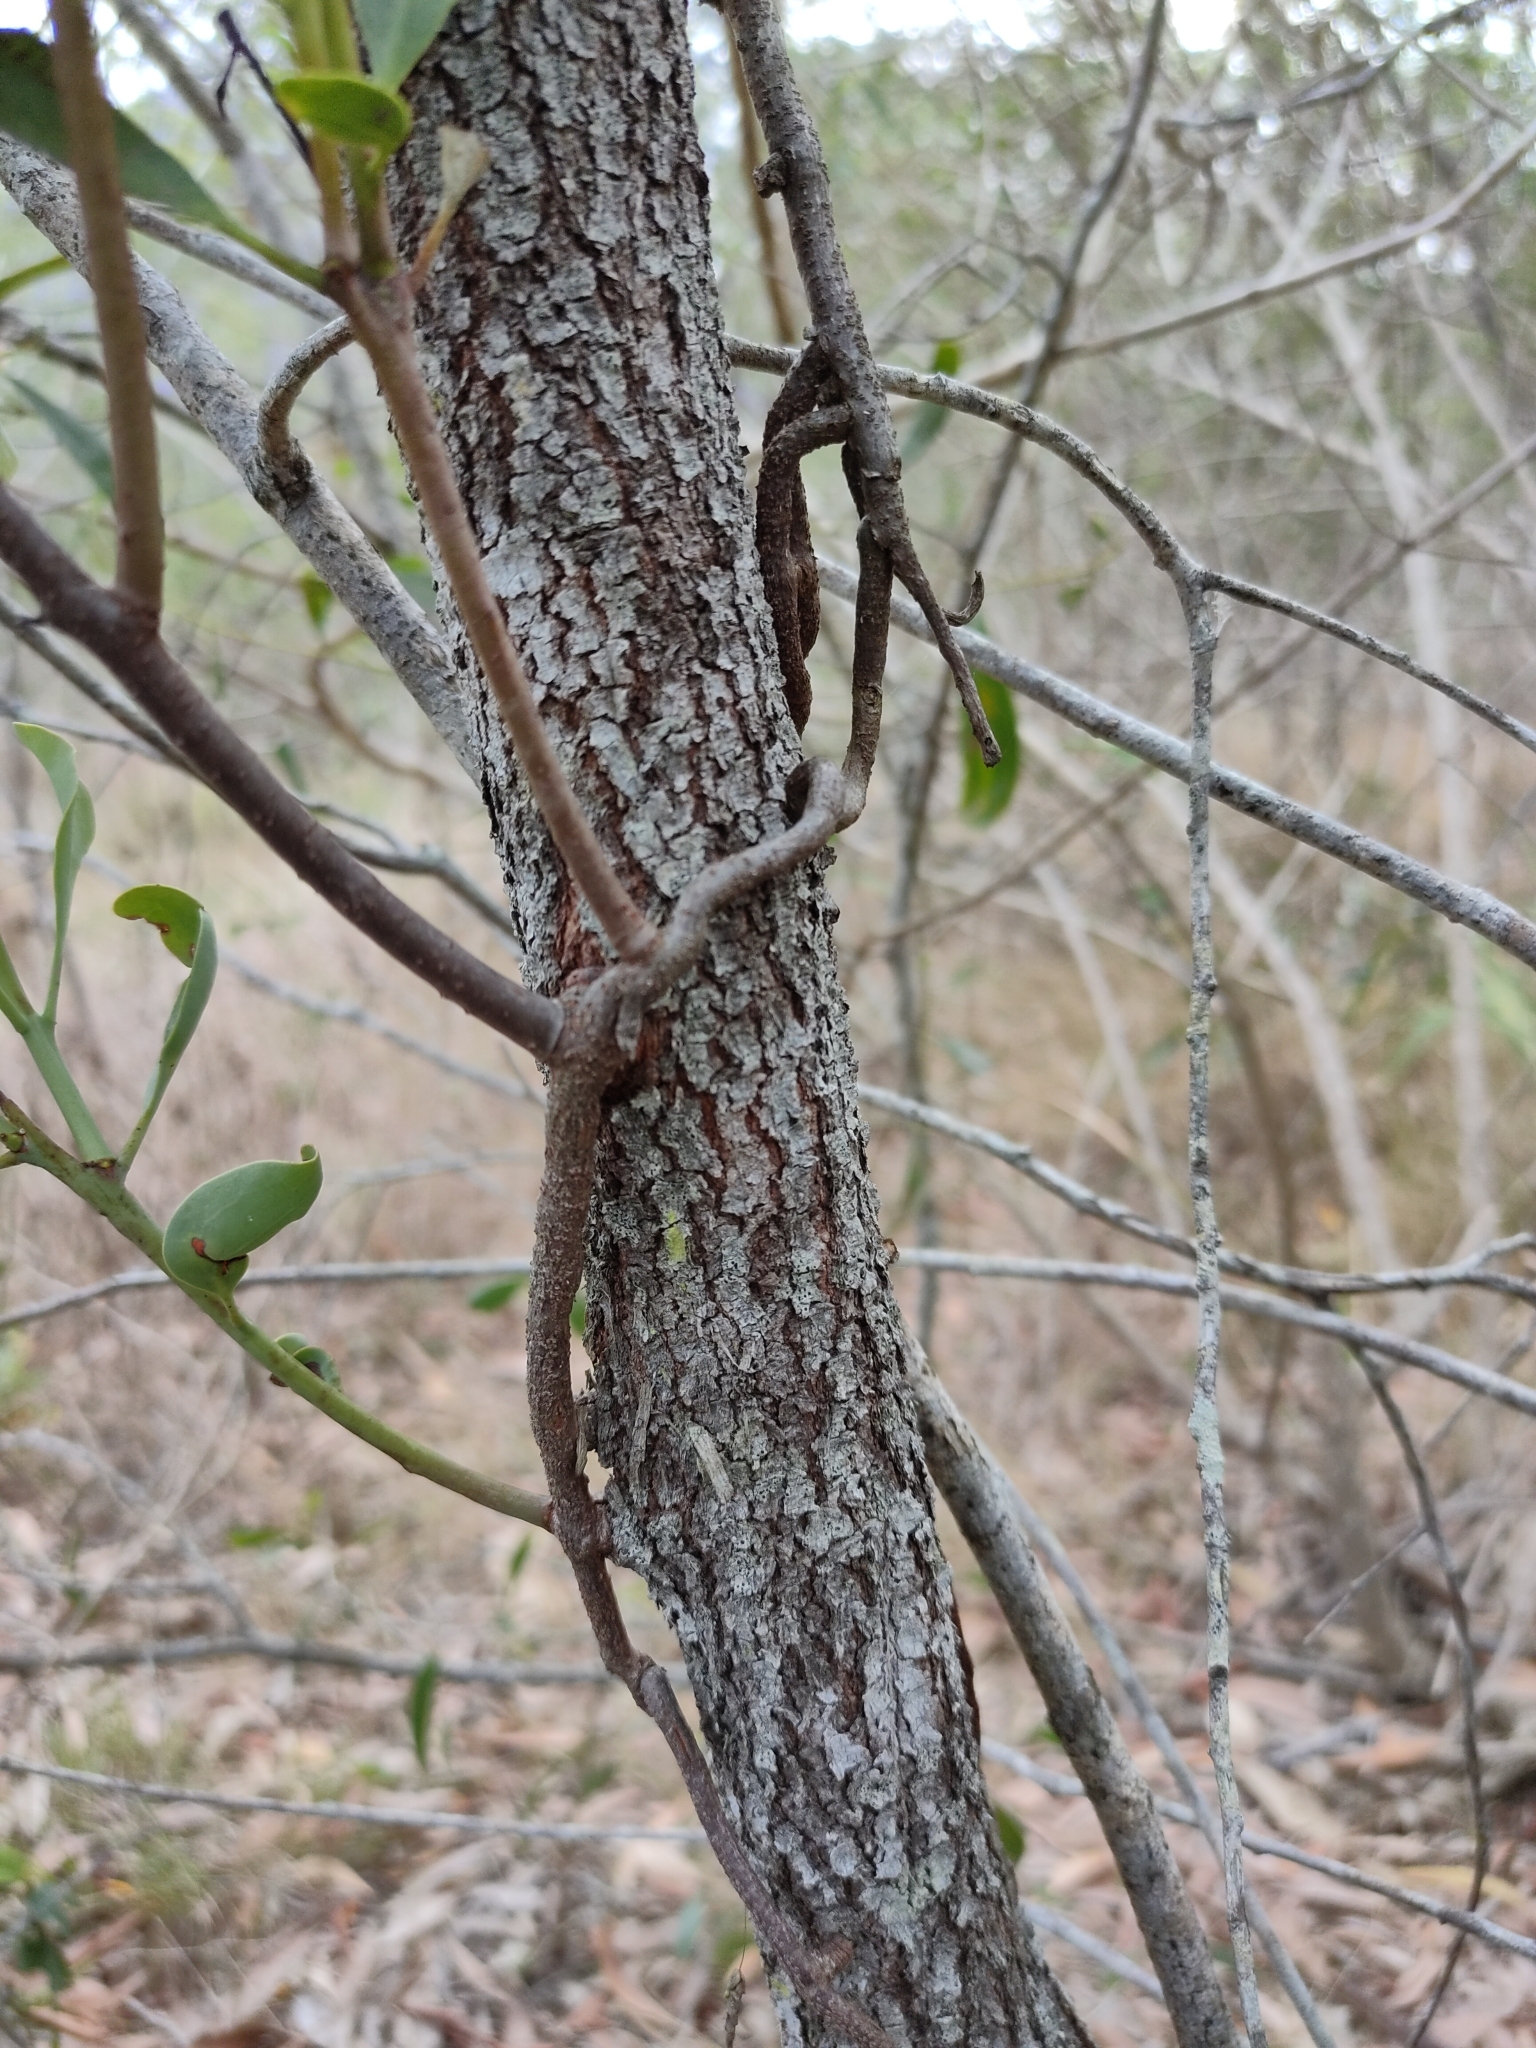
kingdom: Plantae
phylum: Tracheophyta
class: Magnoliopsida
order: Santalales
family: Loranthaceae
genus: Dendrophthoe
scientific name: Dendrophthoe glabrescens
